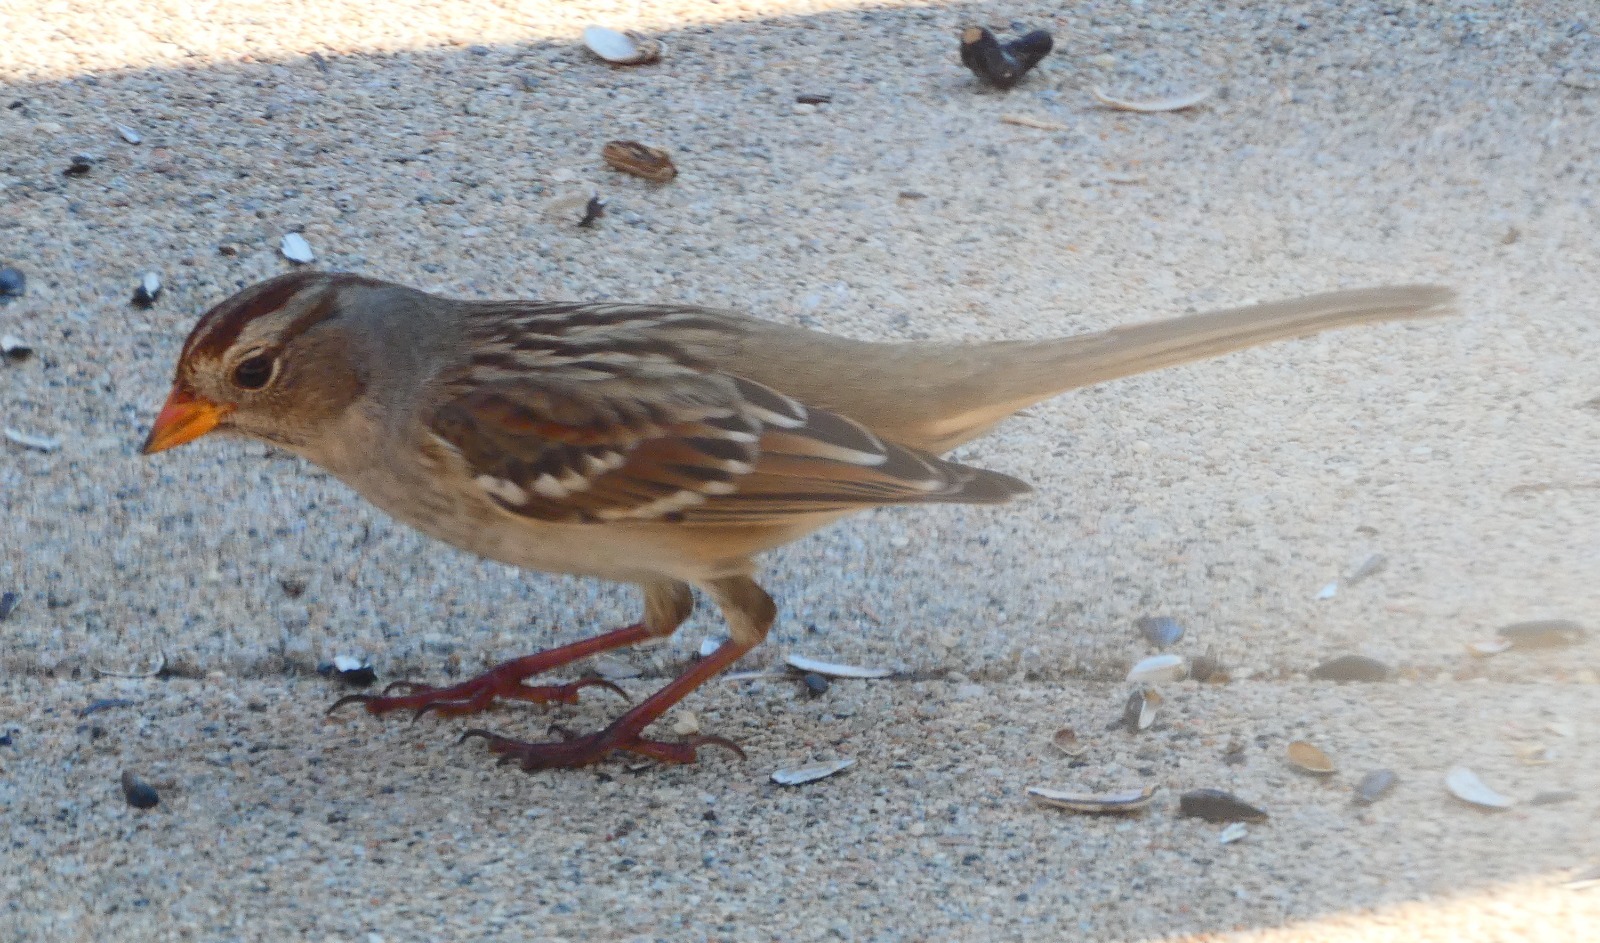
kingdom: Animalia
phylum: Chordata
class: Aves
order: Passeriformes
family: Passerellidae
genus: Zonotrichia
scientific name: Zonotrichia leucophrys
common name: White-crowned sparrow
